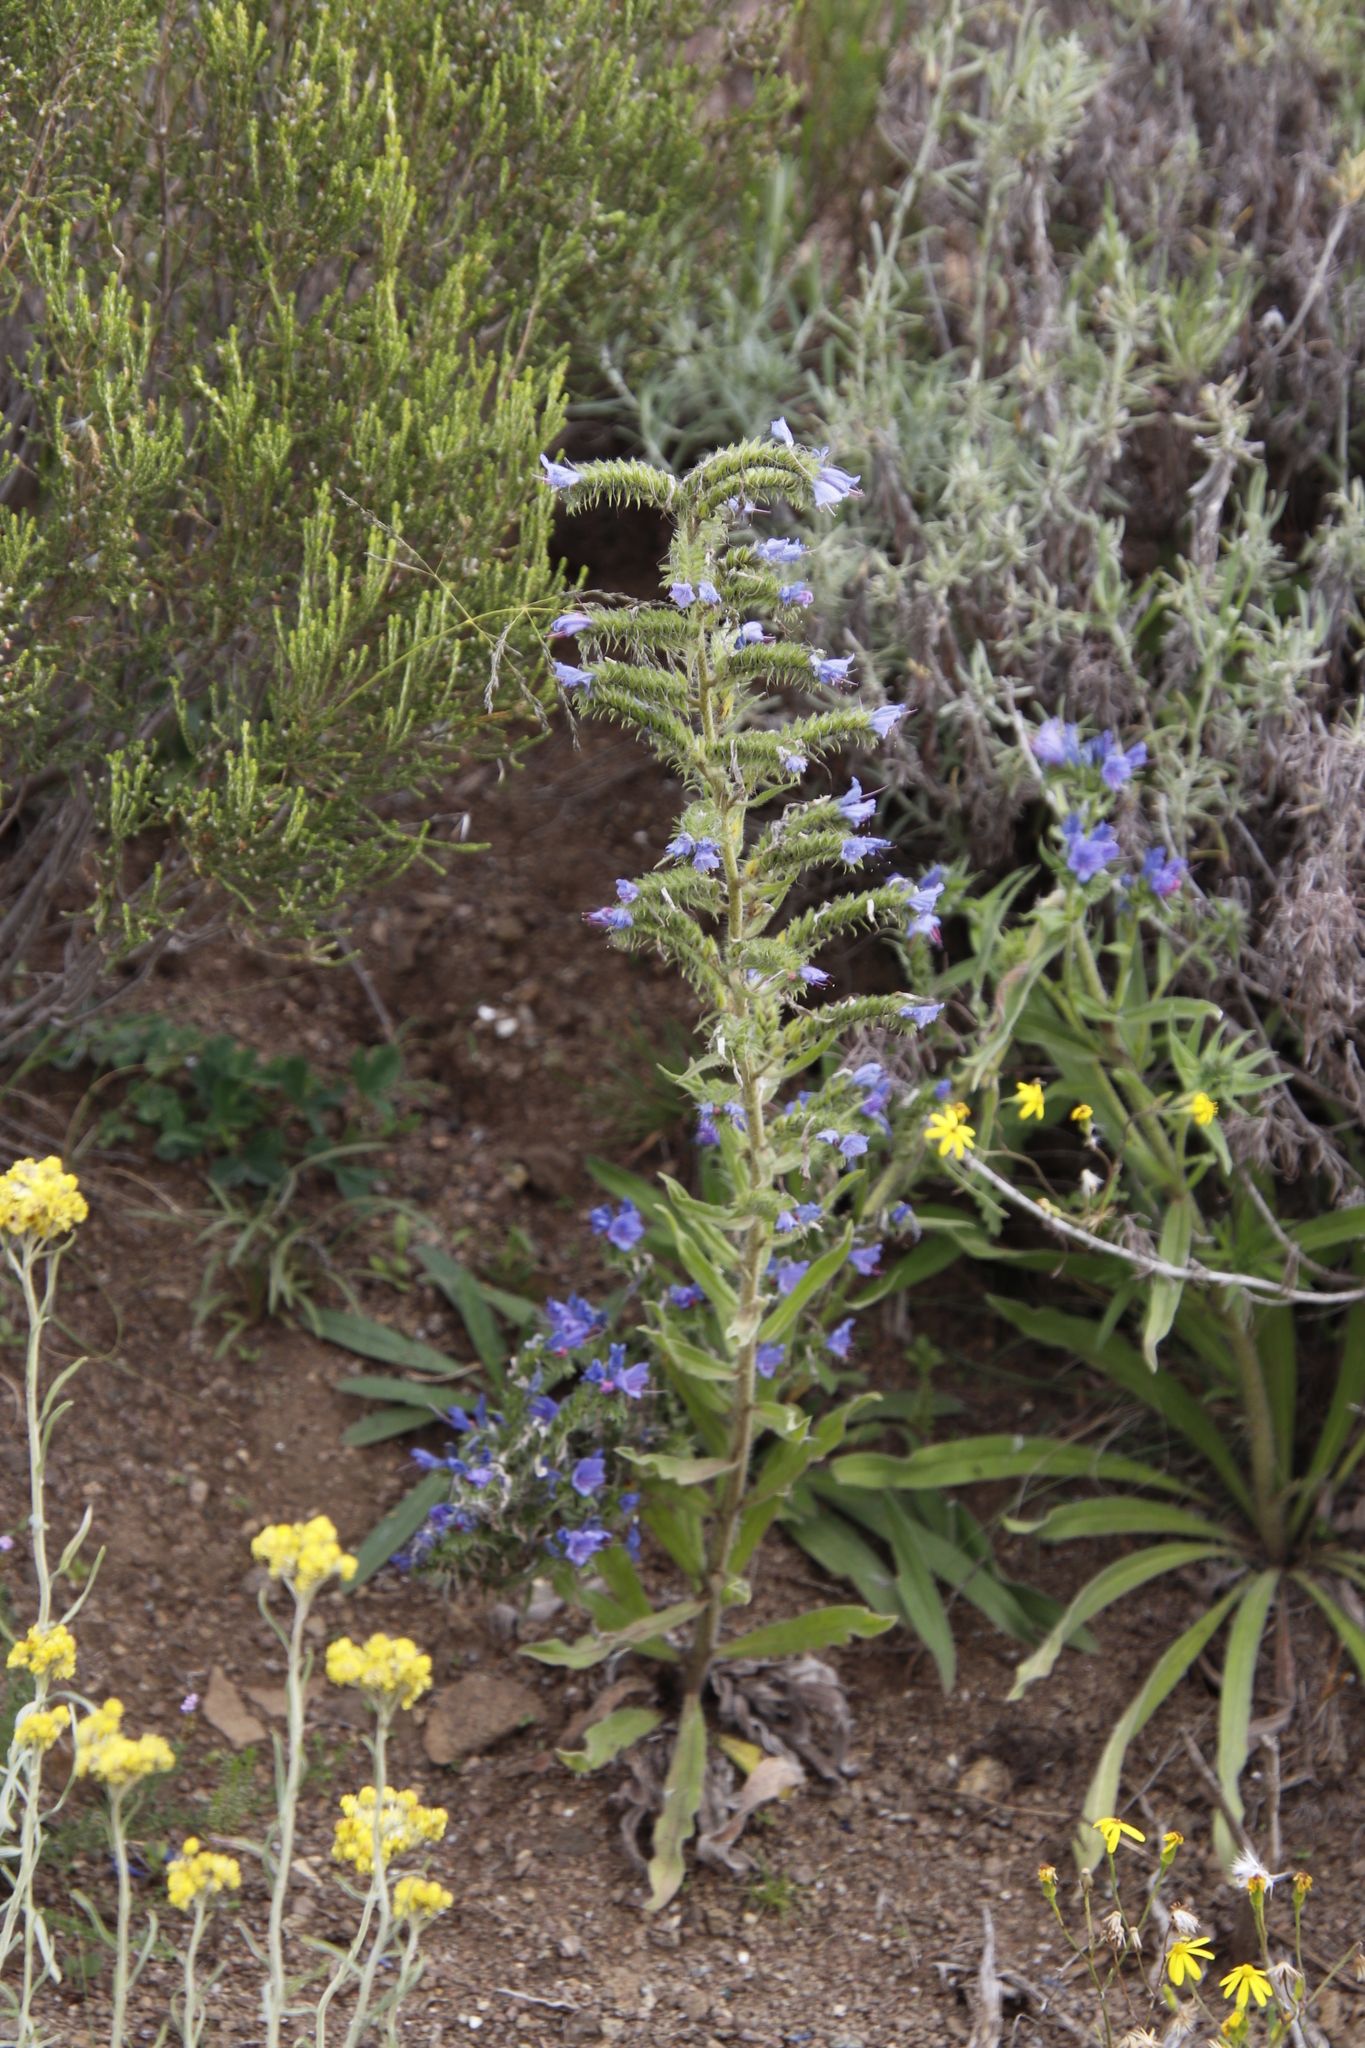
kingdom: Plantae
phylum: Tracheophyta
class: Magnoliopsida
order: Boraginales
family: Boraginaceae
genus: Echium
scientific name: Echium vulgare
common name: Common viper's bugloss
